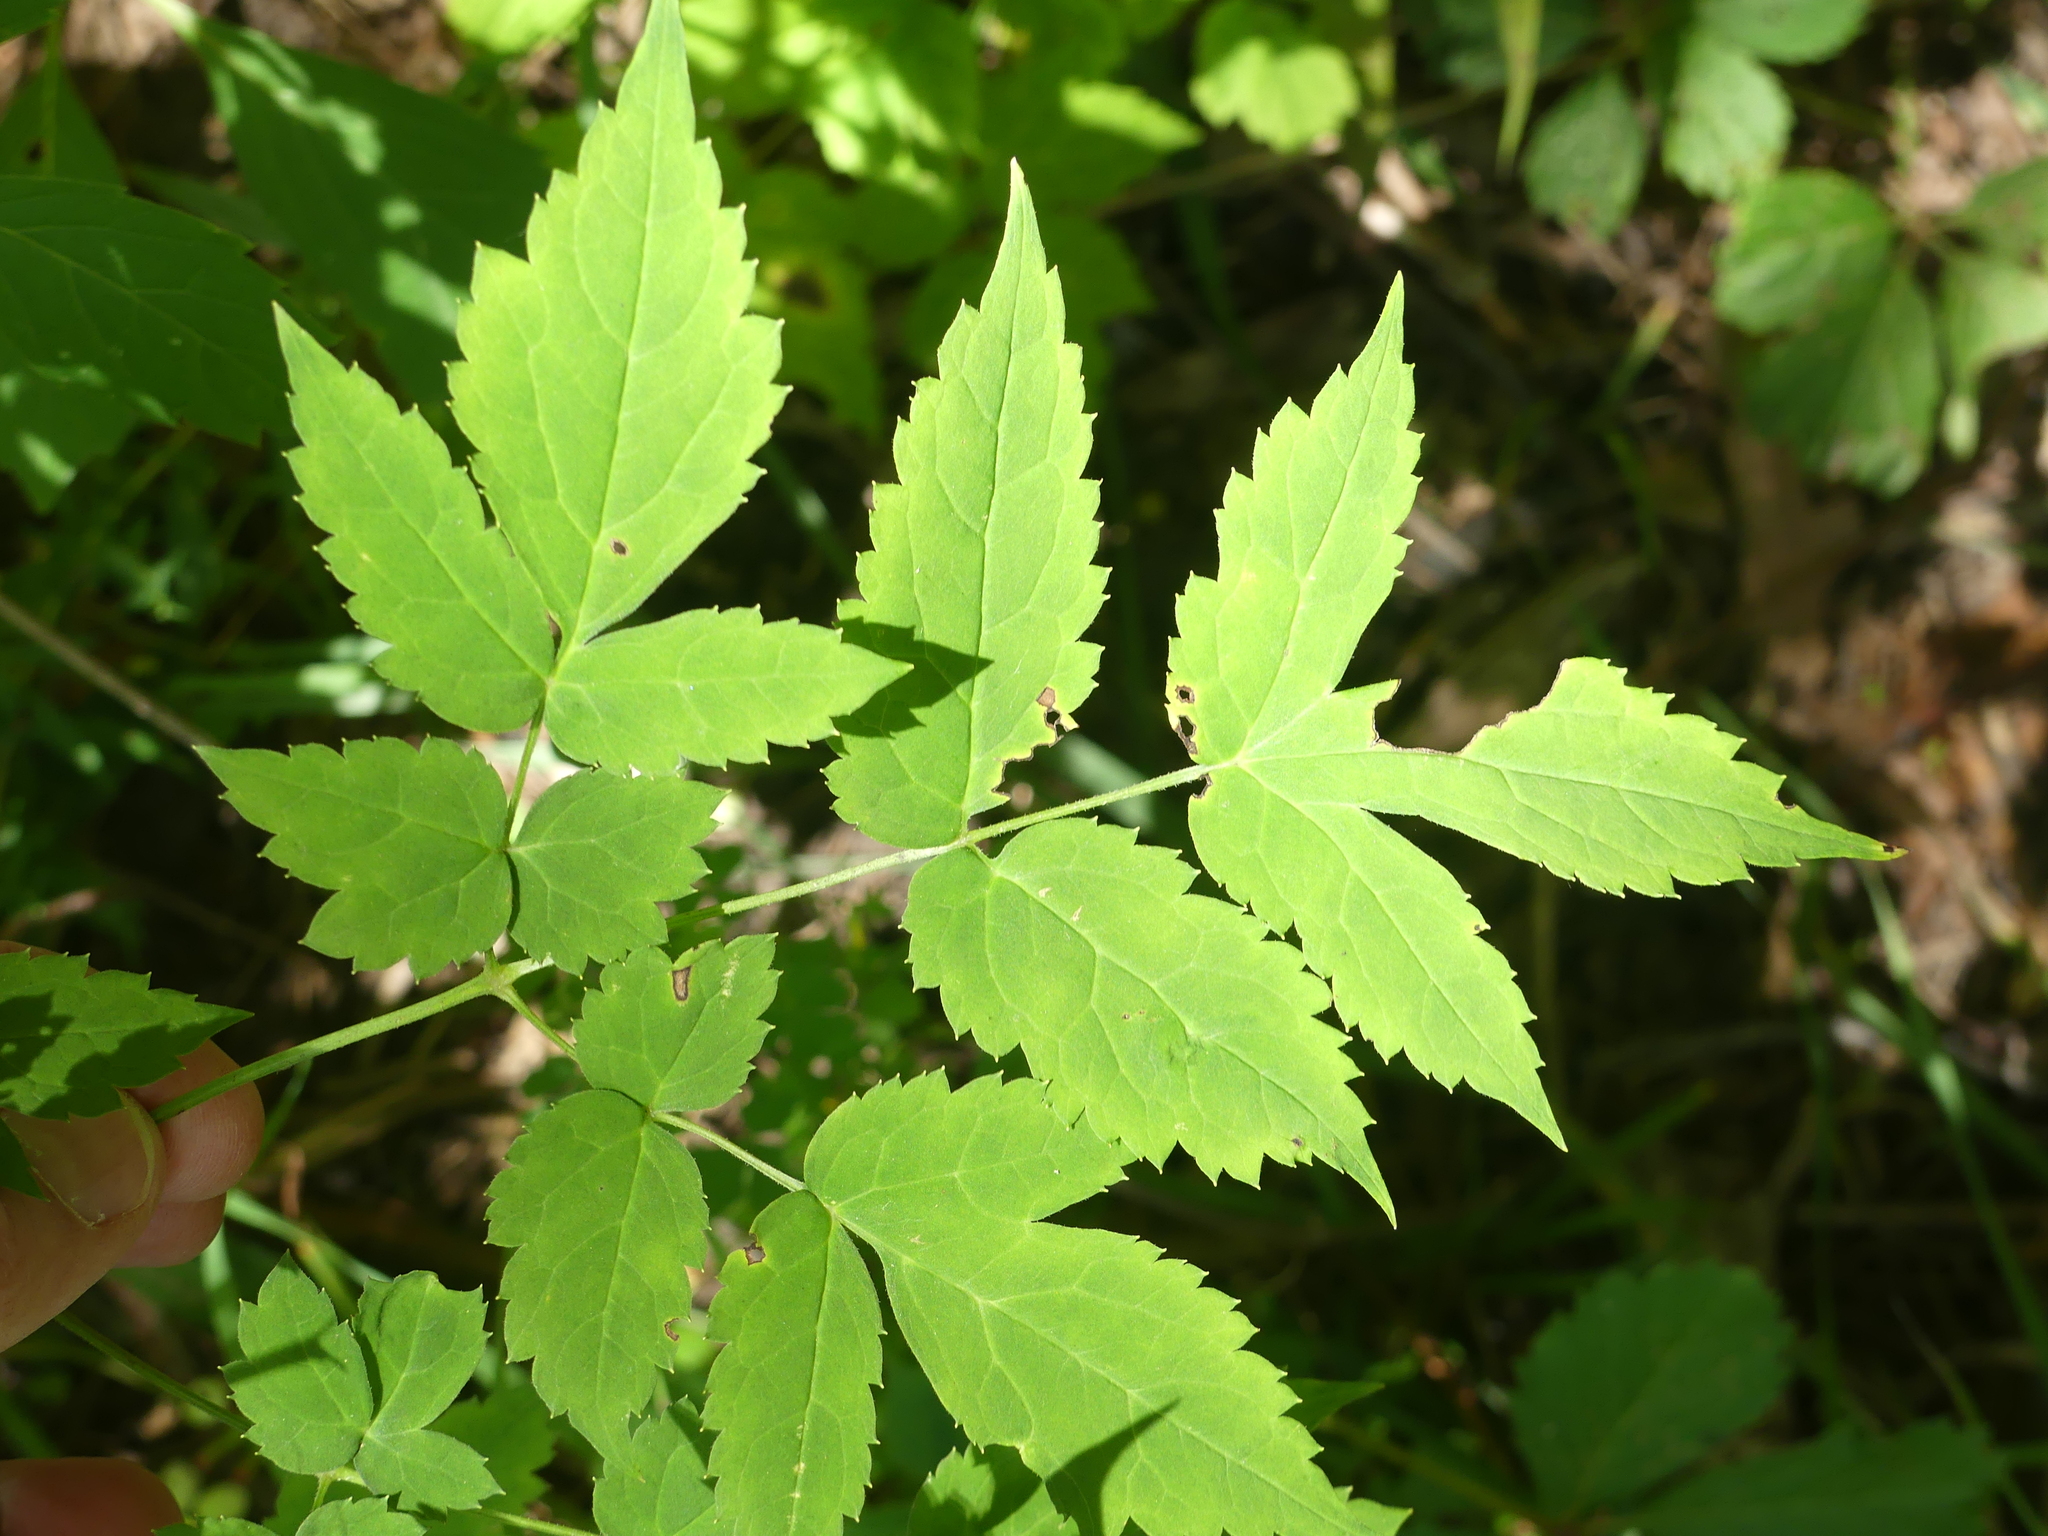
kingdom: Plantae
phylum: Tracheophyta
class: Magnoliopsida
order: Ranunculales
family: Ranunculaceae
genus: Actaea
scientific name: Actaea pachypoda
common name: Doll's-eyes
